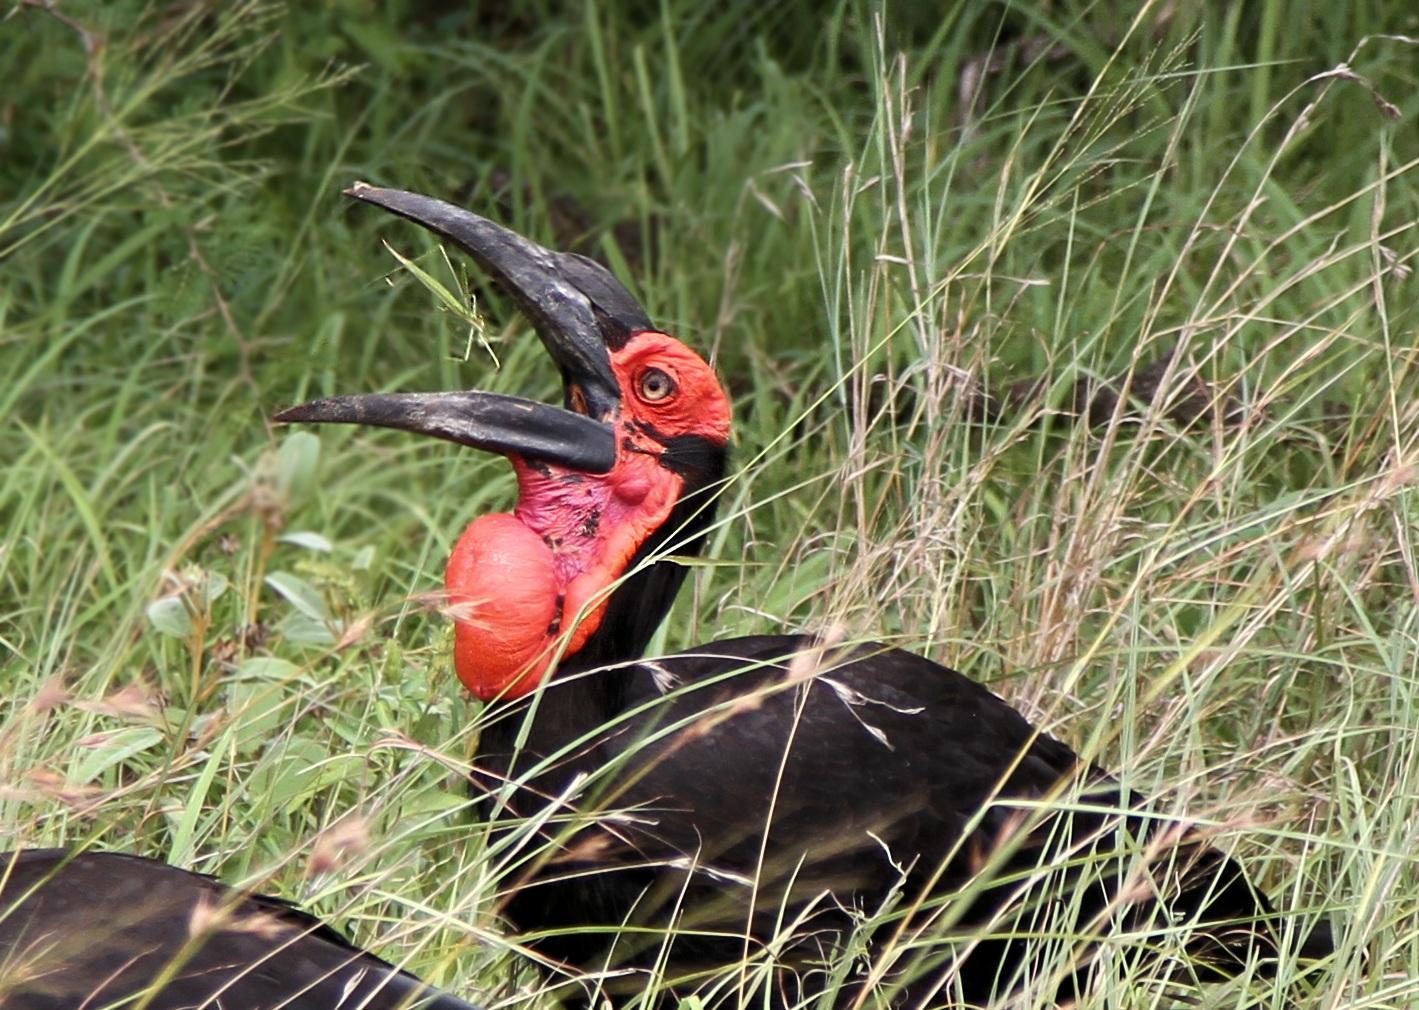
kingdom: Animalia
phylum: Chordata
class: Aves
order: Bucerotiformes
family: Bucorvidae
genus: Bucorvus
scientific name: Bucorvus leadbeateri
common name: Southern ground-hornbill
